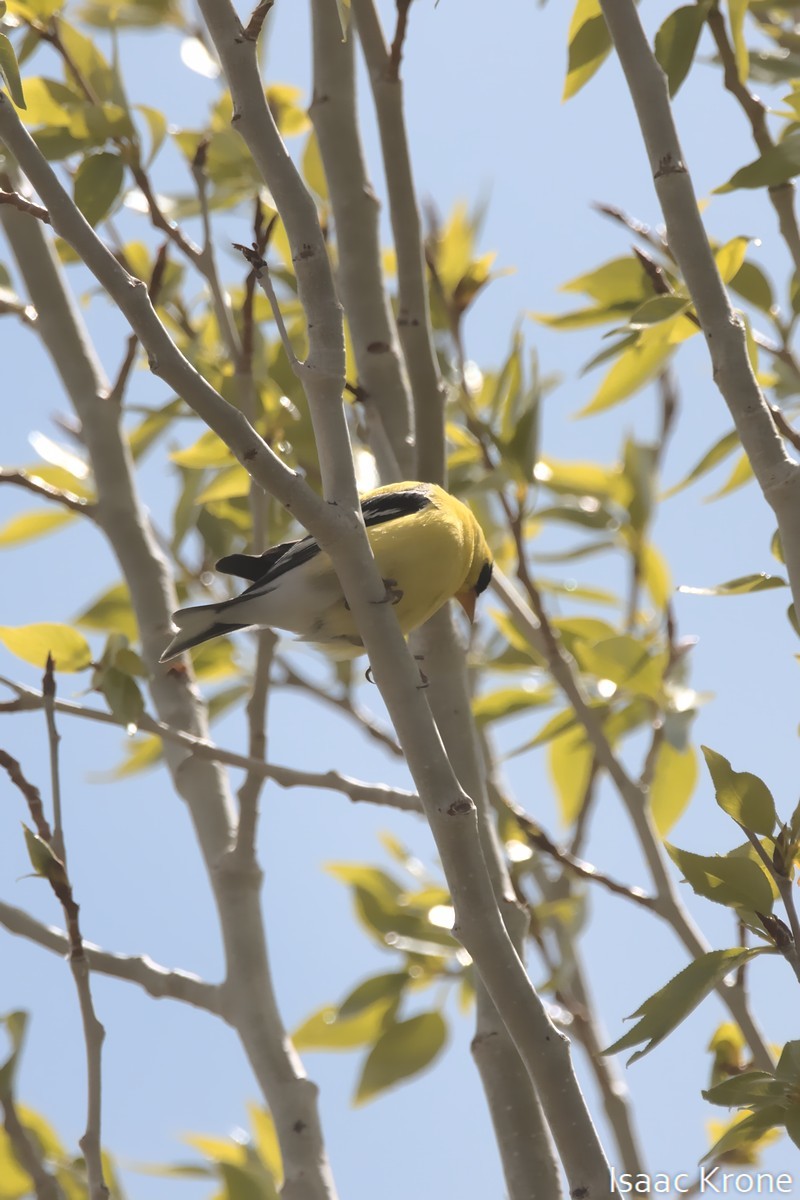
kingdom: Animalia
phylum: Chordata
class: Aves
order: Passeriformes
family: Fringillidae
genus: Spinus
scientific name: Spinus tristis
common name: American goldfinch
